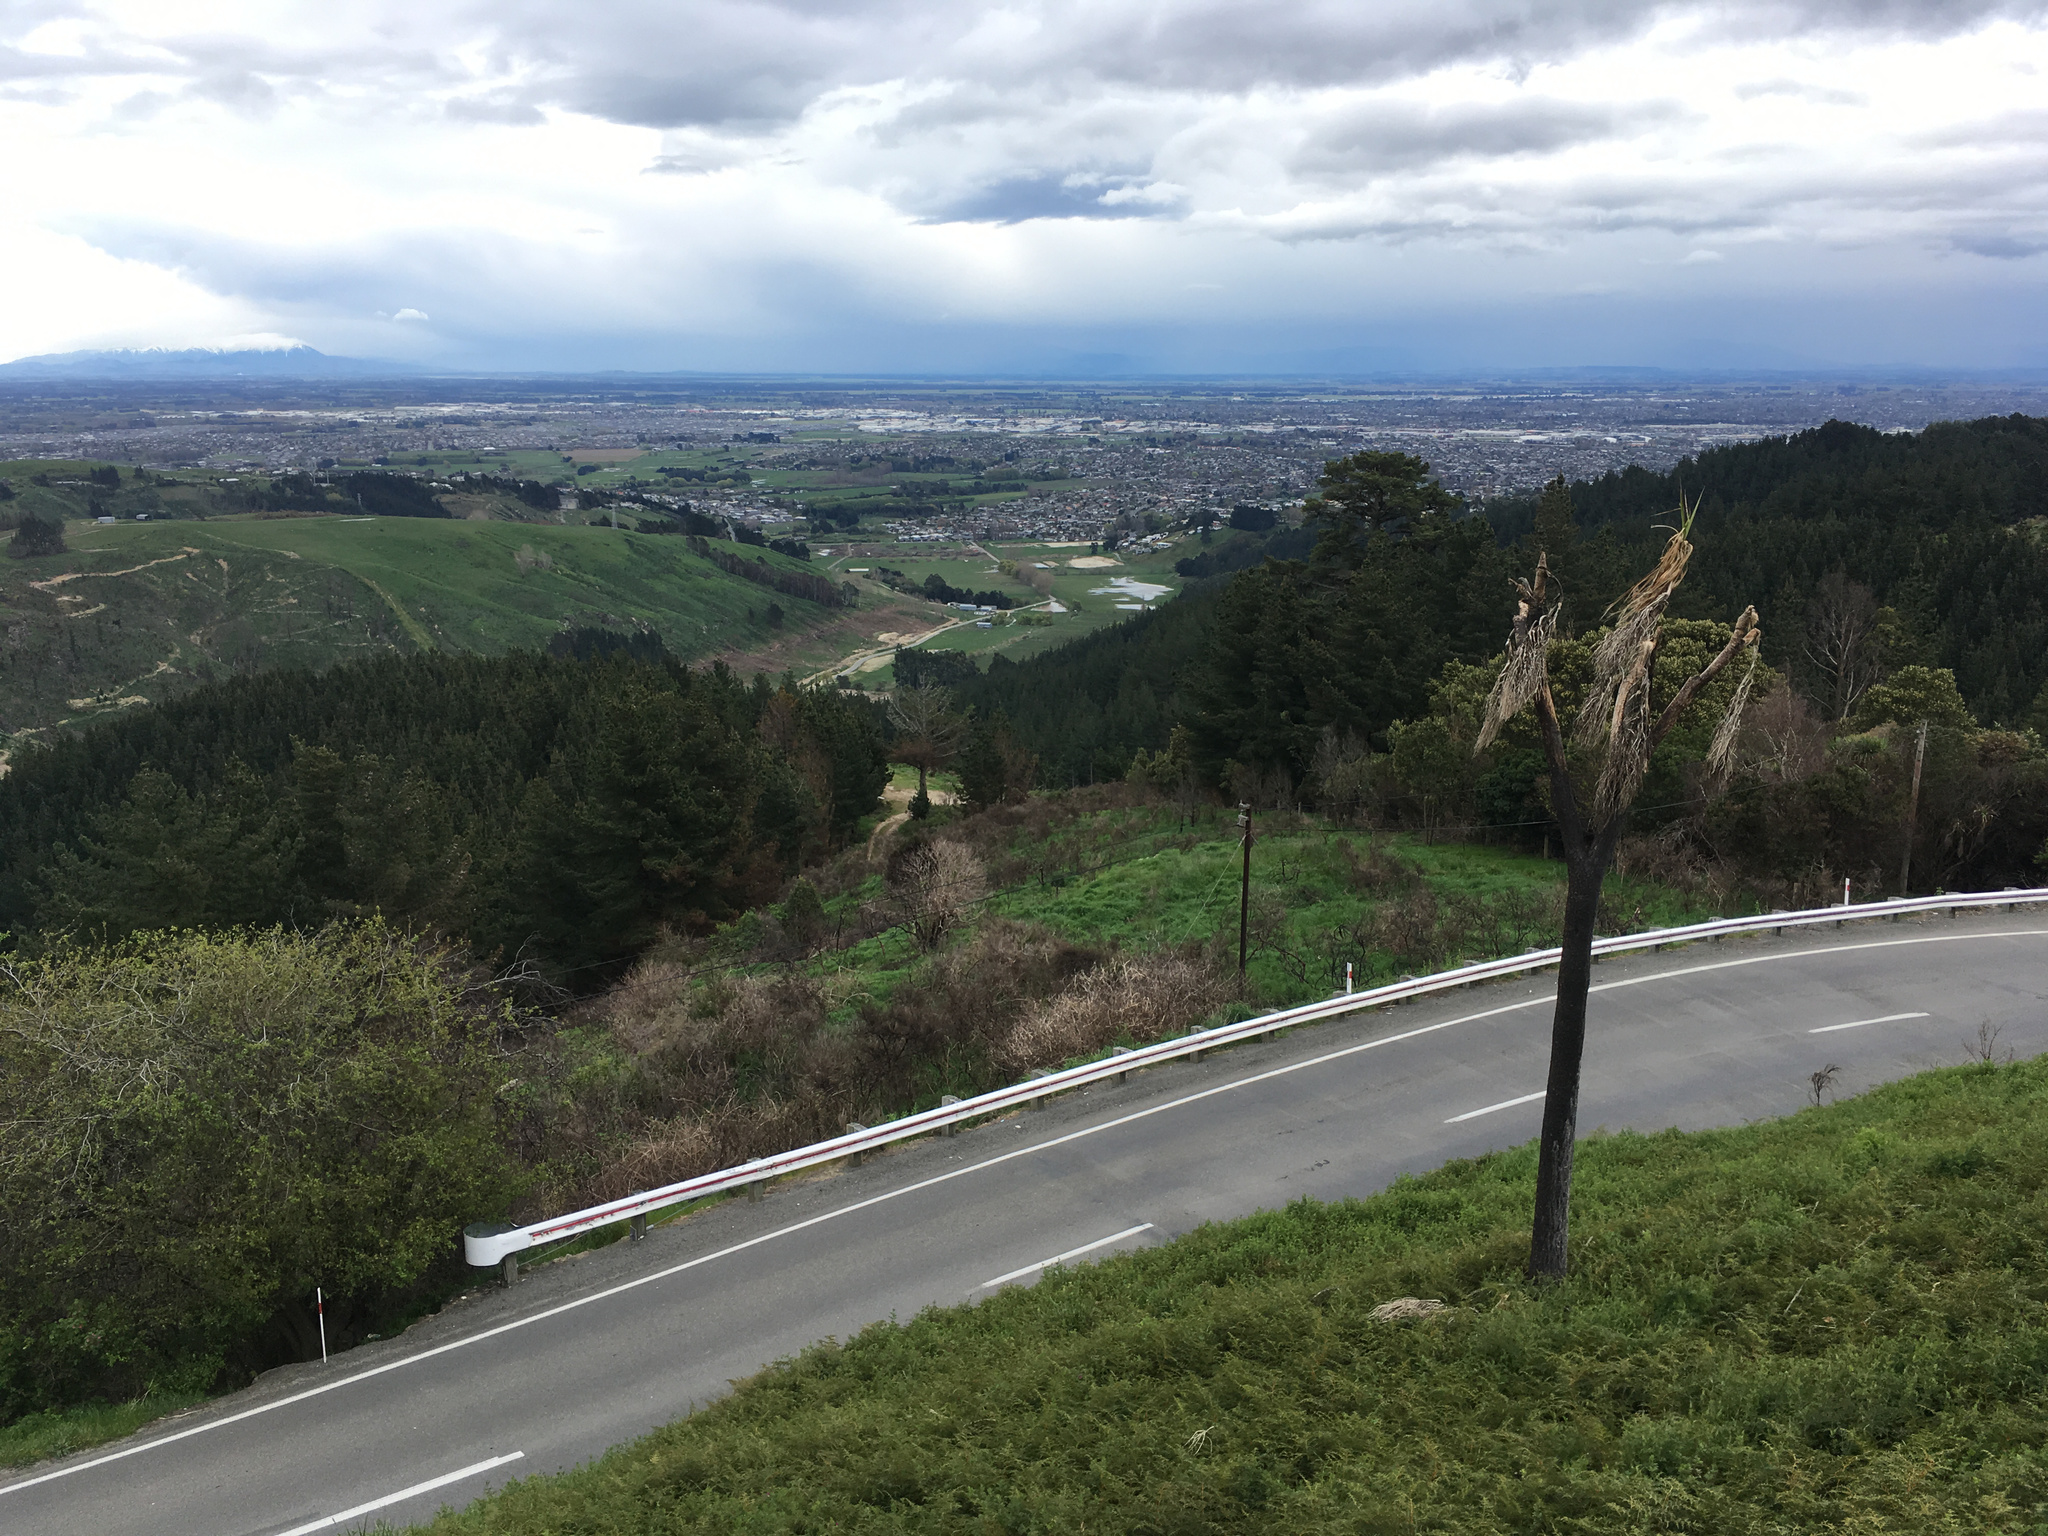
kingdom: Plantae
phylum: Tracheophyta
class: Liliopsida
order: Asparagales
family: Asparagaceae
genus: Cordyline
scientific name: Cordyline australis
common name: Cabbage-palm
